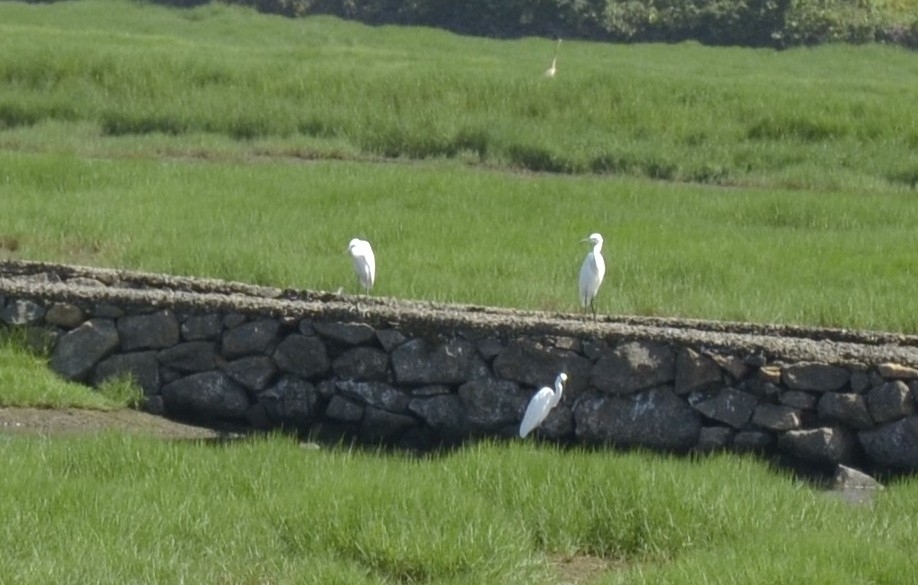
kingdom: Animalia
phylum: Chordata
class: Aves
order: Pelecaniformes
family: Ardeidae
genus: Egretta
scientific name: Egretta garzetta
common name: Little egret
